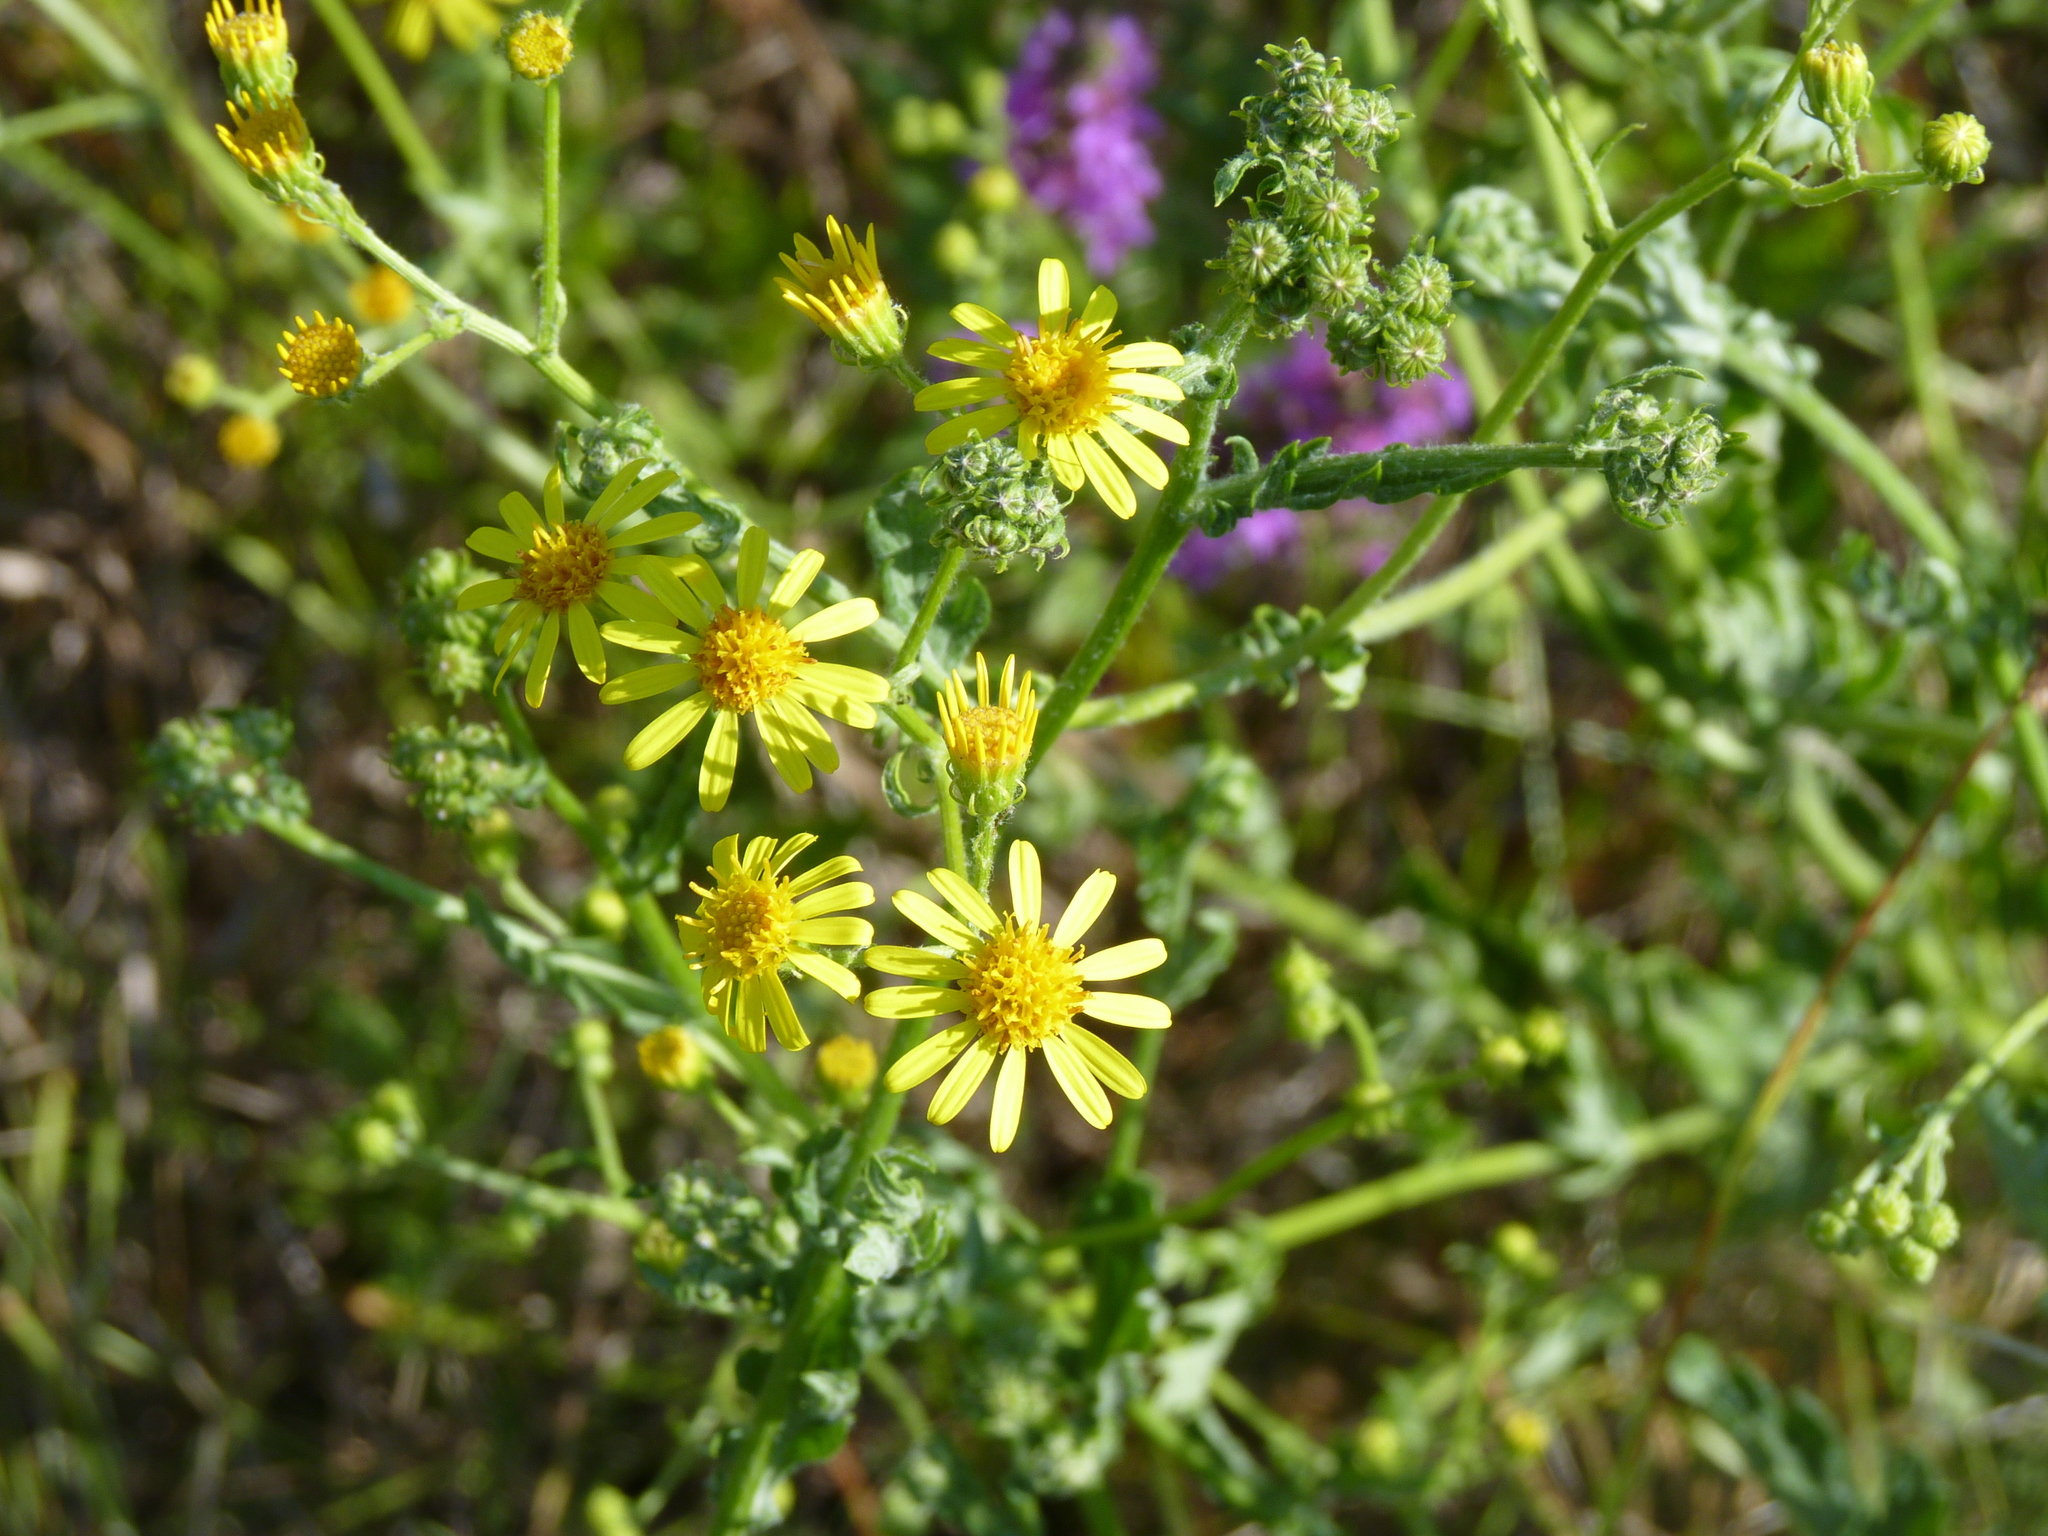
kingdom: Plantae
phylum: Tracheophyta
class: Magnoliopsida
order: Asterales
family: Asteraceae
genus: Jacobaea
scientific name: Jacobaea vulgaris
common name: Stinking willie
